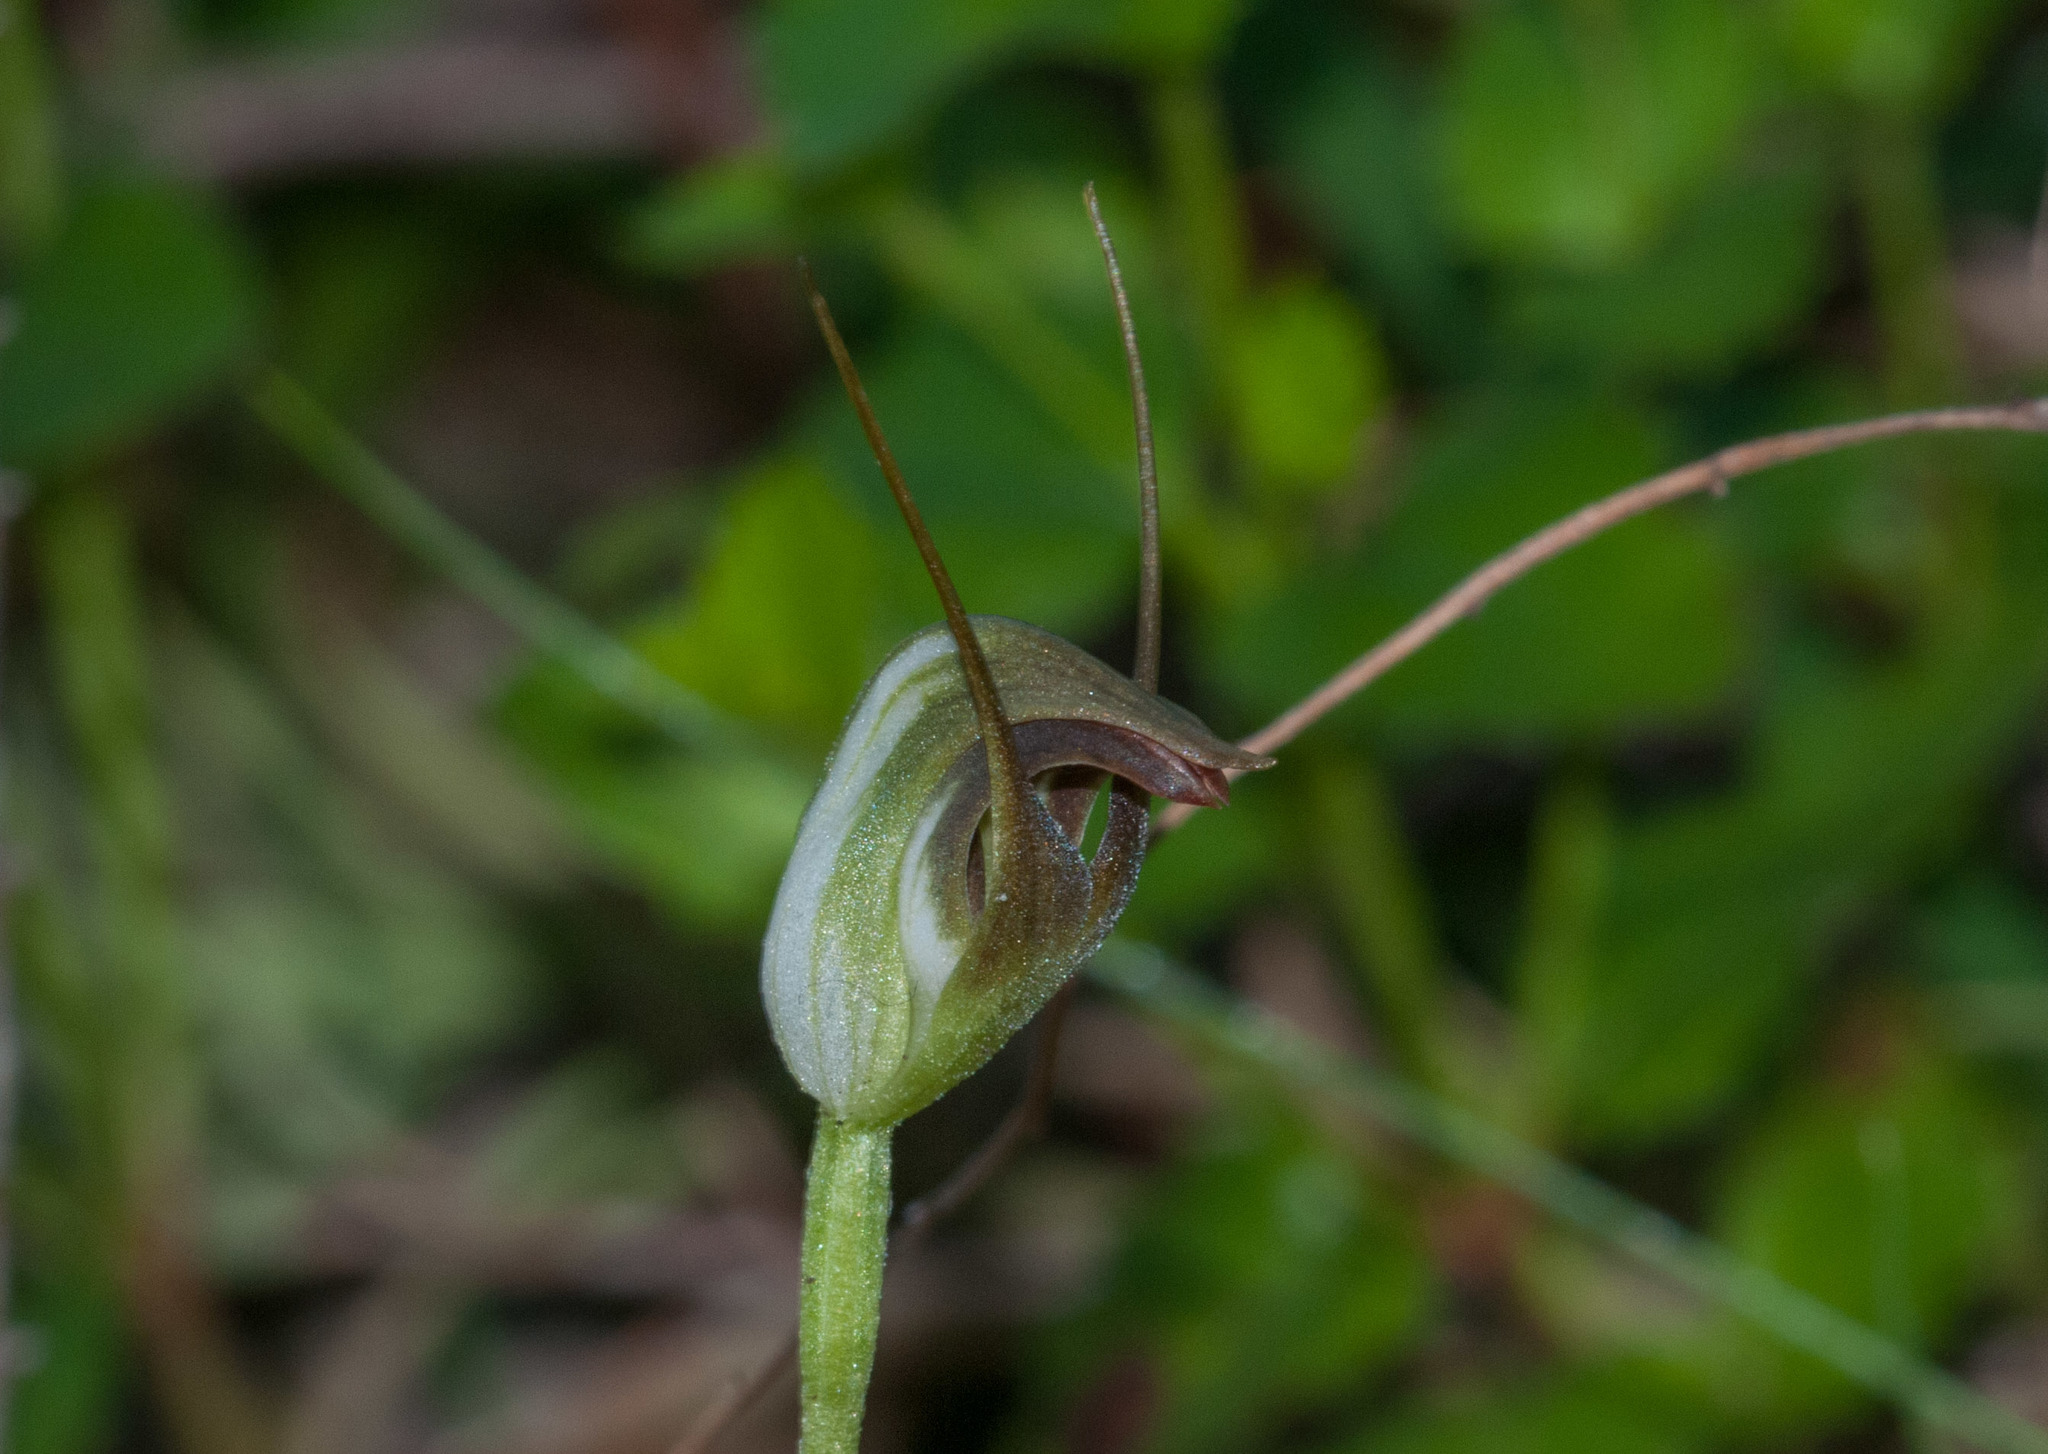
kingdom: Plantae
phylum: Tracheophyta
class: Liliopsida
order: Asparagales
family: Orchidaceae
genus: Pterostylis
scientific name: Pterostylis pedunculata
